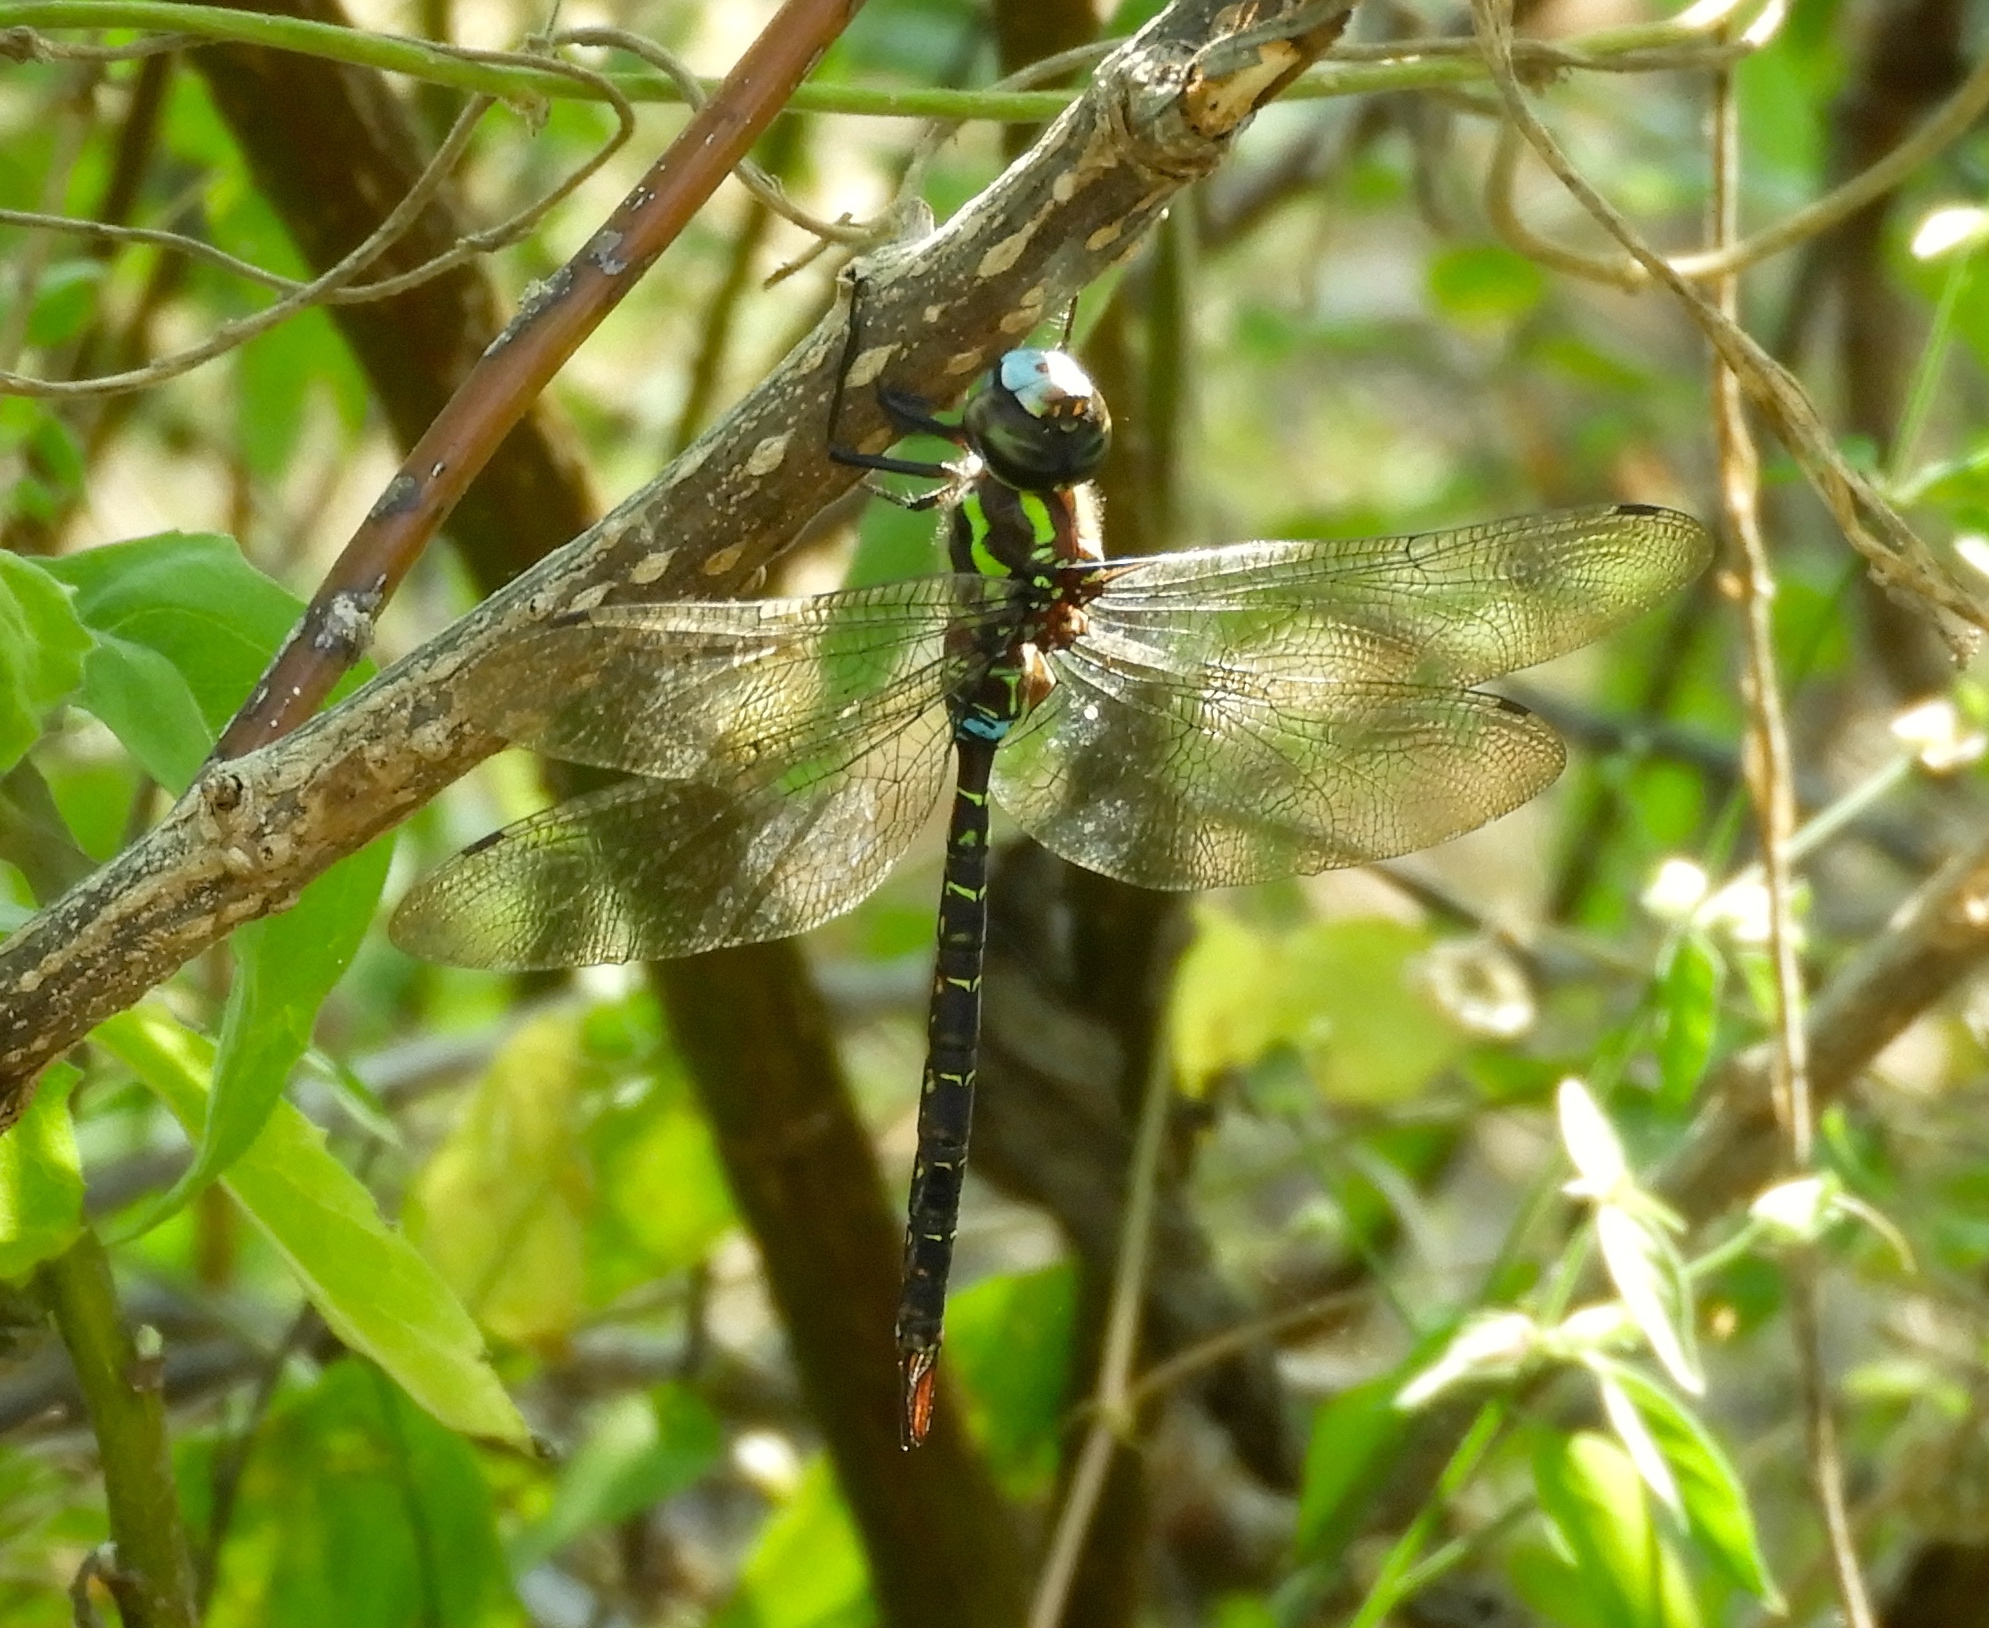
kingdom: Animalia
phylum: Arthropoda
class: Insecta
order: Odonata
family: Aeshnidae
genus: Rhionaeschna
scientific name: Rhionaeschna psilus
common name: Turquoise-tipped darner
